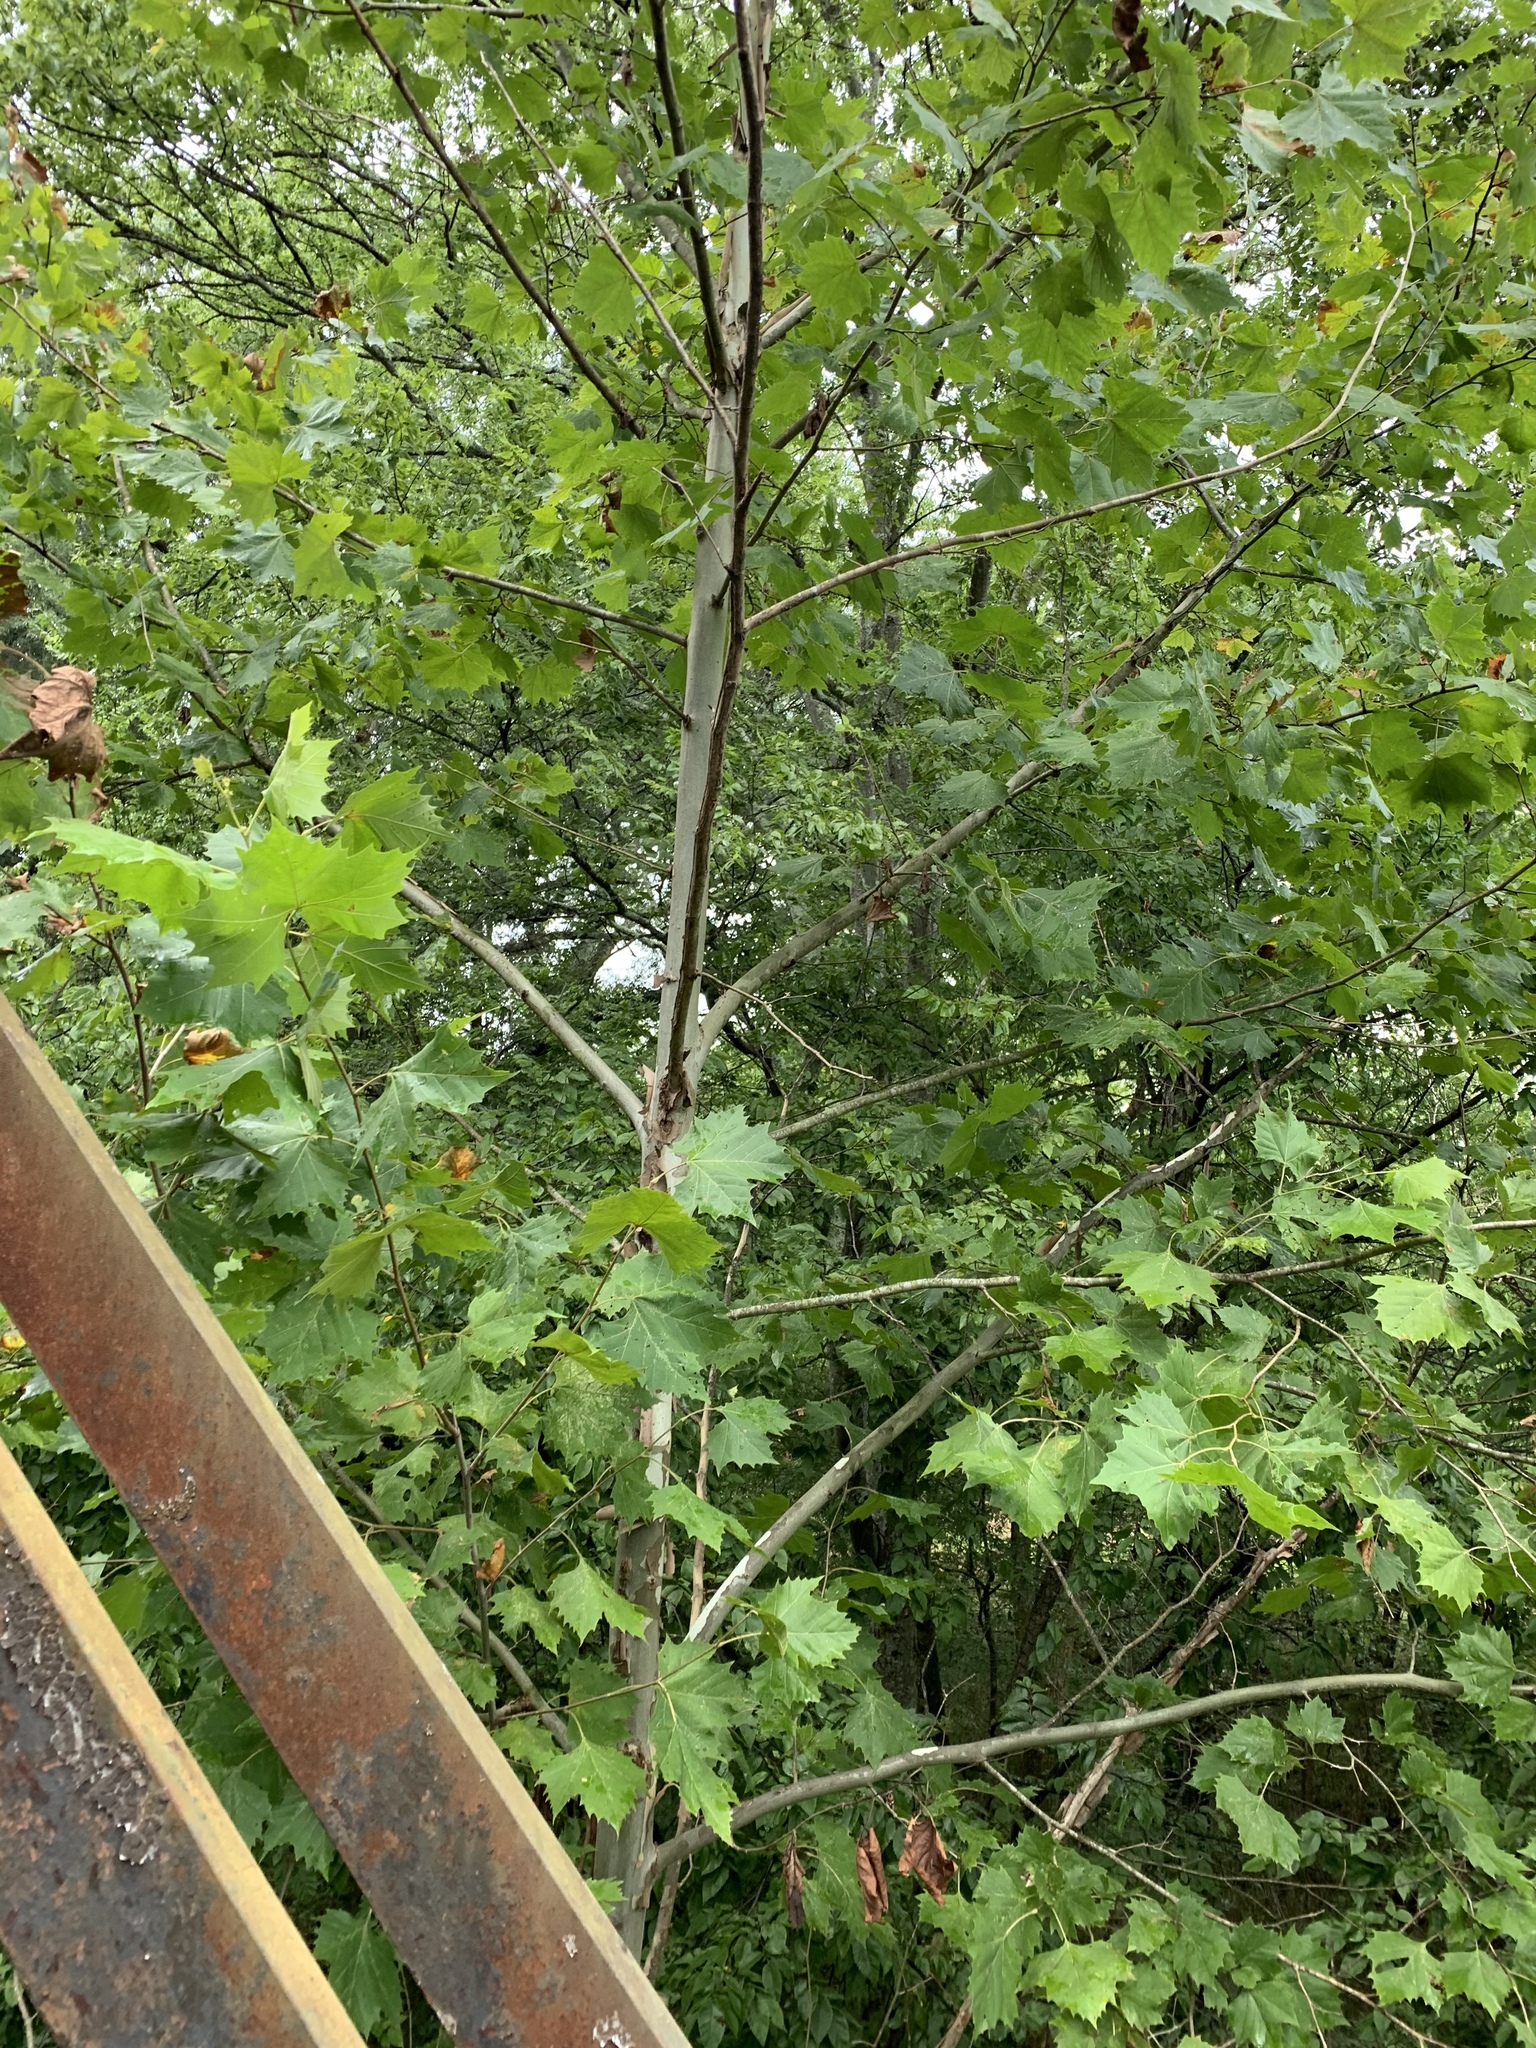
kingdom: Plantae
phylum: Tracheophyta
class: Magnoliopsida
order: Proteales
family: Platanaceae
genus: Platanus
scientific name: Platanus occidentalis
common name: American sycamore
